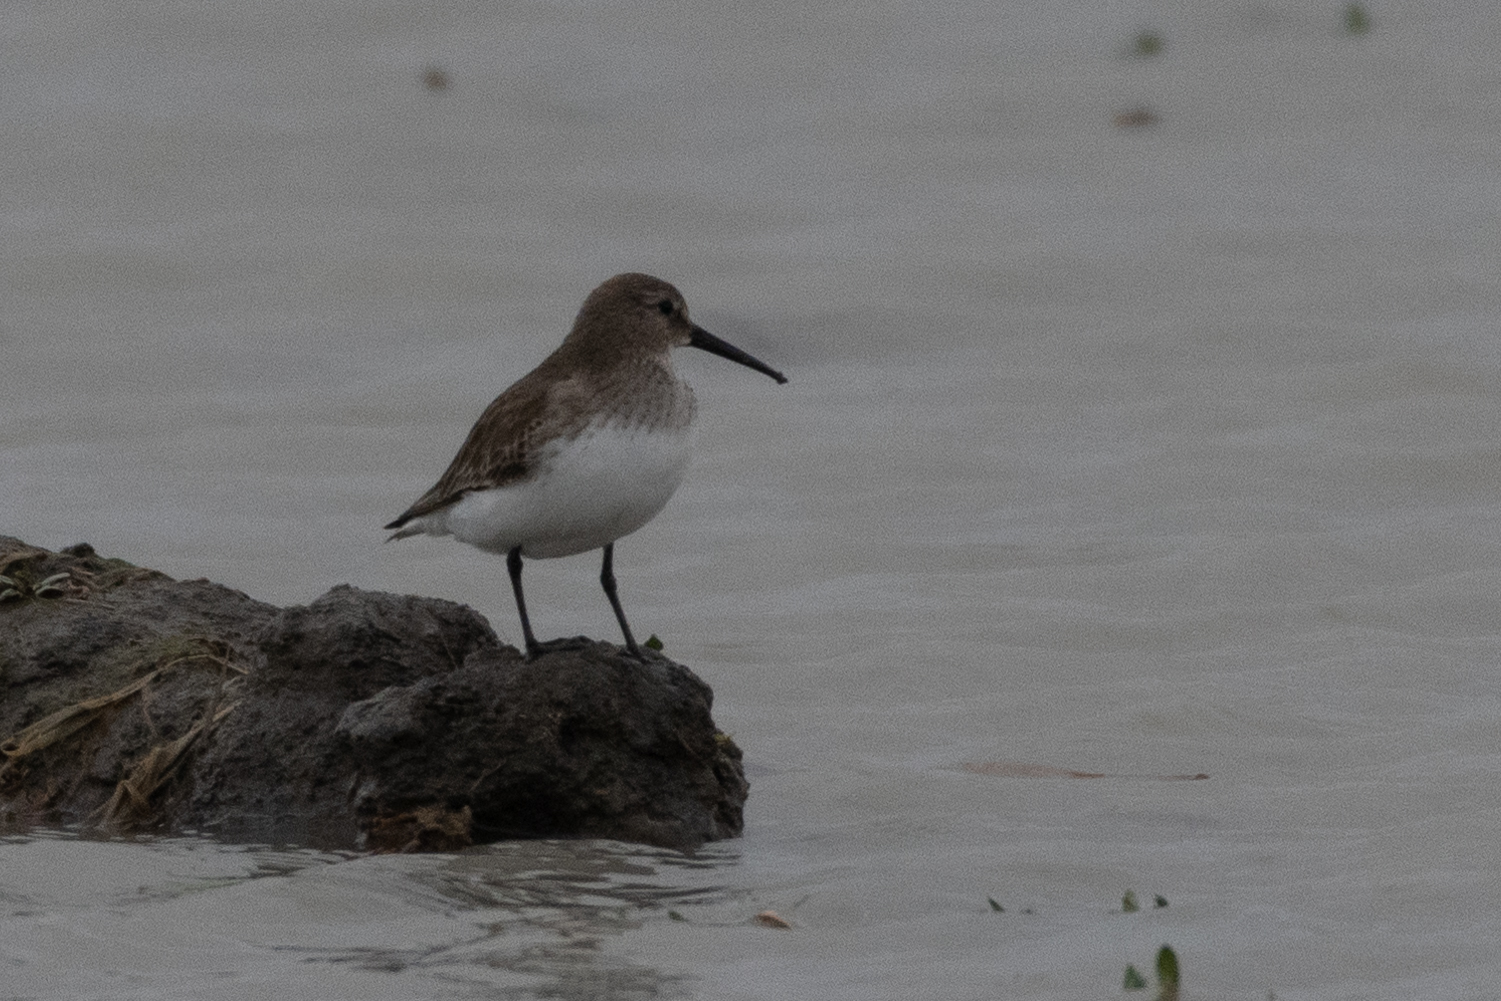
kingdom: Animalia
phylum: Chordata
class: Aves
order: Charadriiformes
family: Scolopacidae
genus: Calidris
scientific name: Calidris alpina
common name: Dunlin
